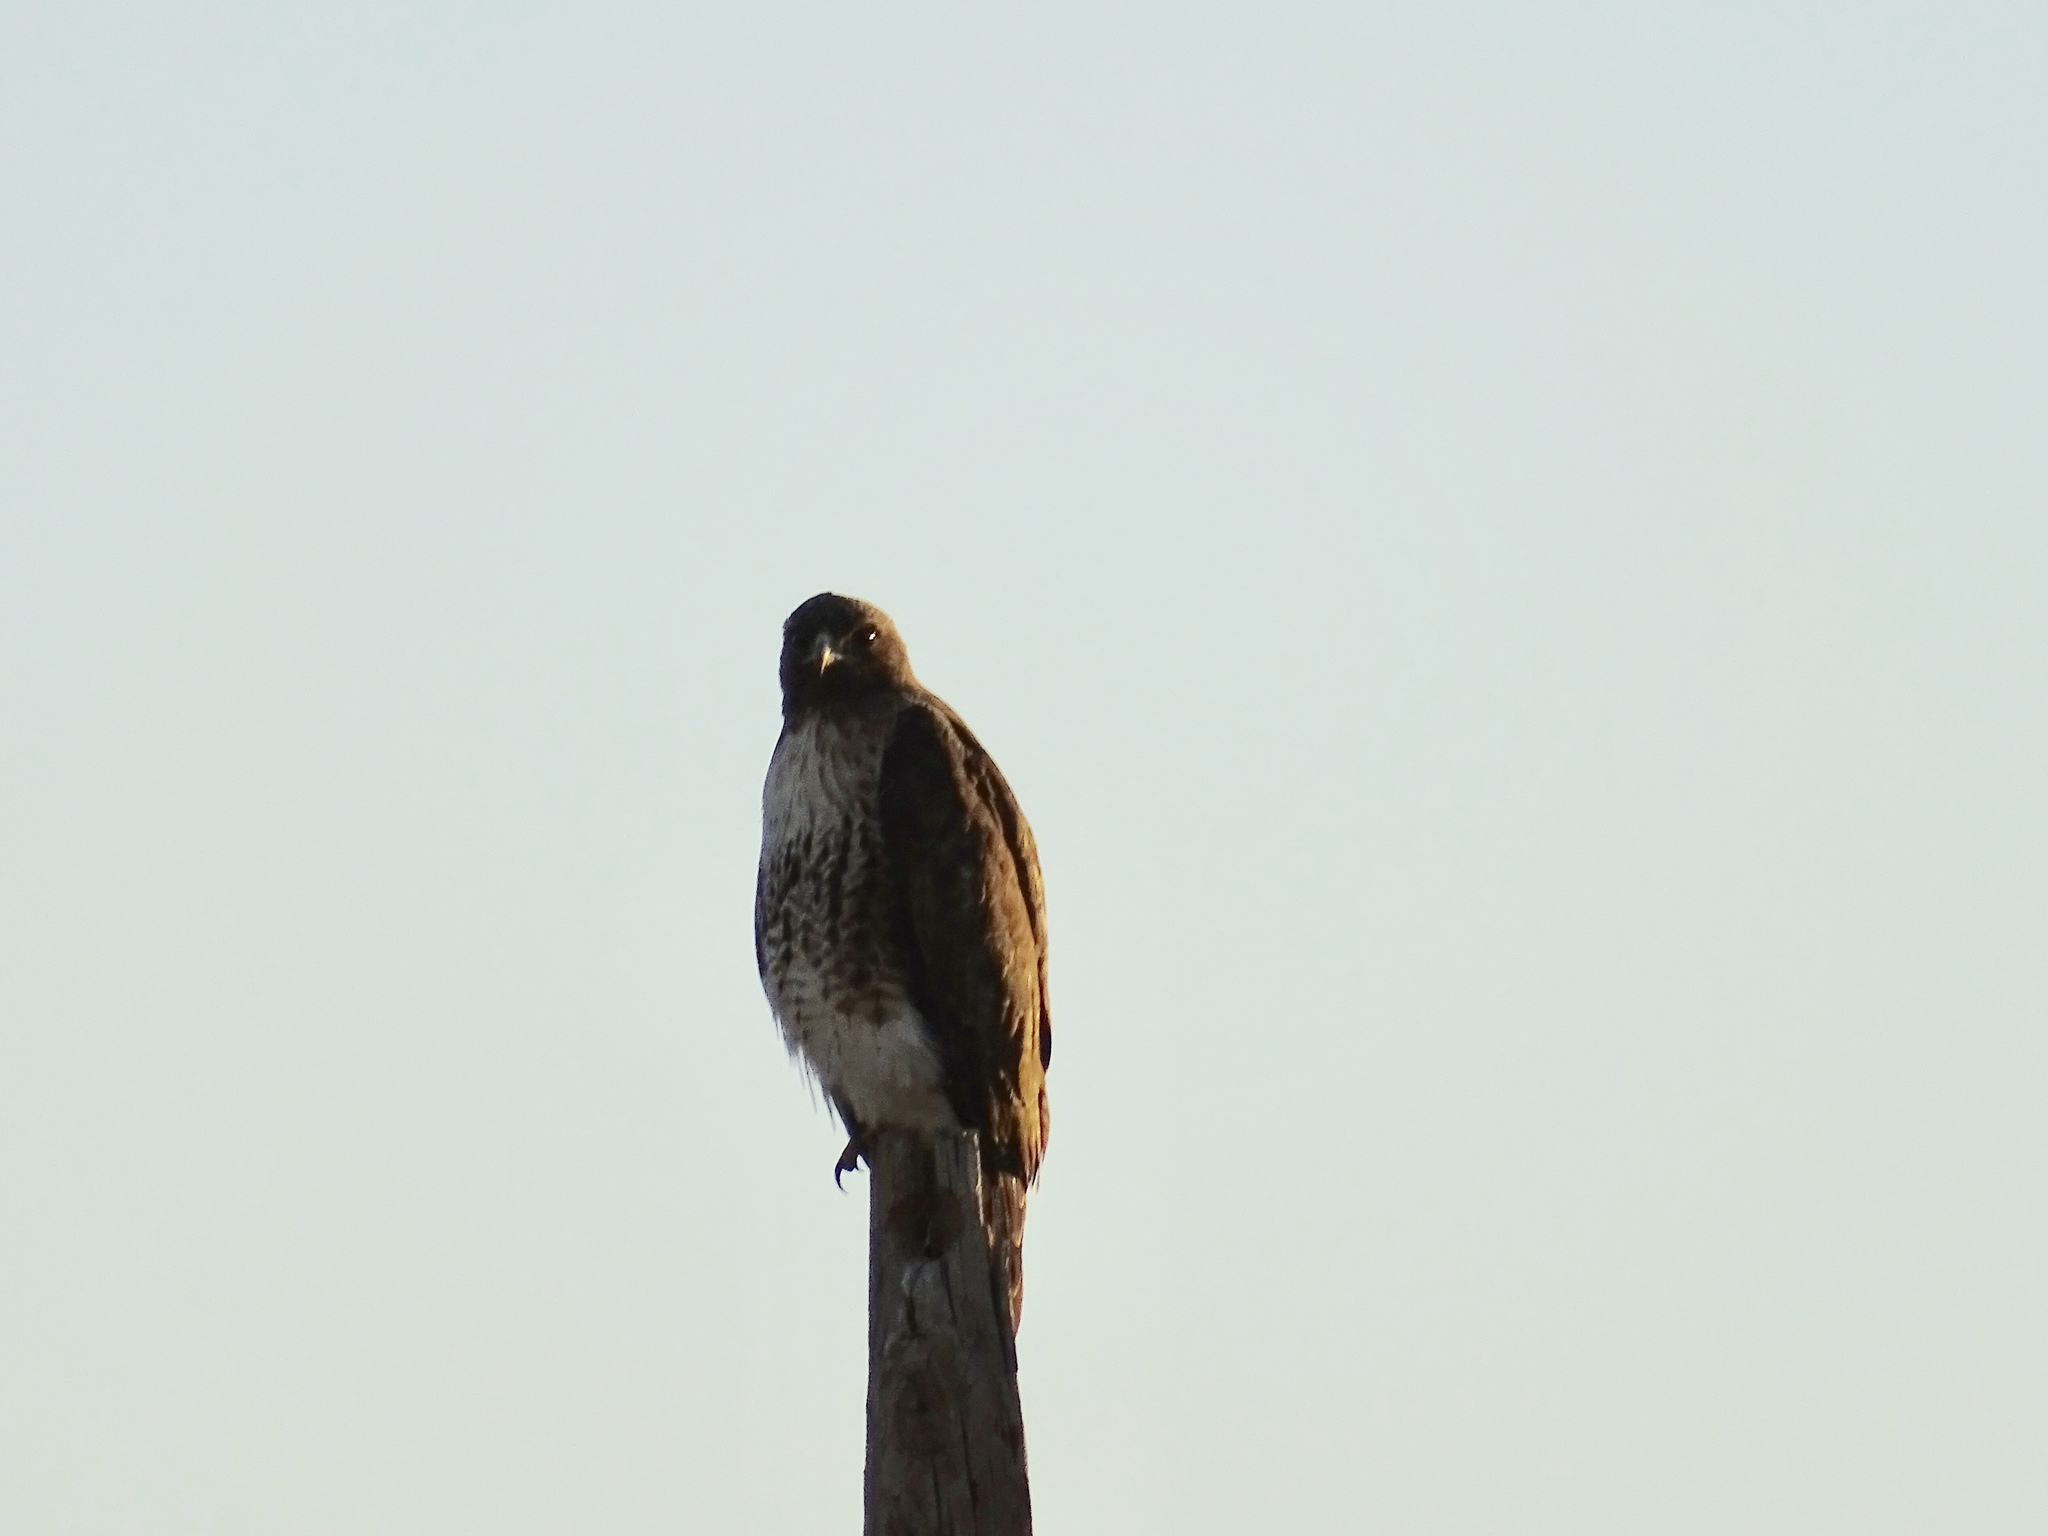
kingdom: Animalia
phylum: Chordata
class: Aves
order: Accipitriformes
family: Accipitridae
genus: Buteo
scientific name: Buteo jamaicensis
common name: Red-tailed hawk
